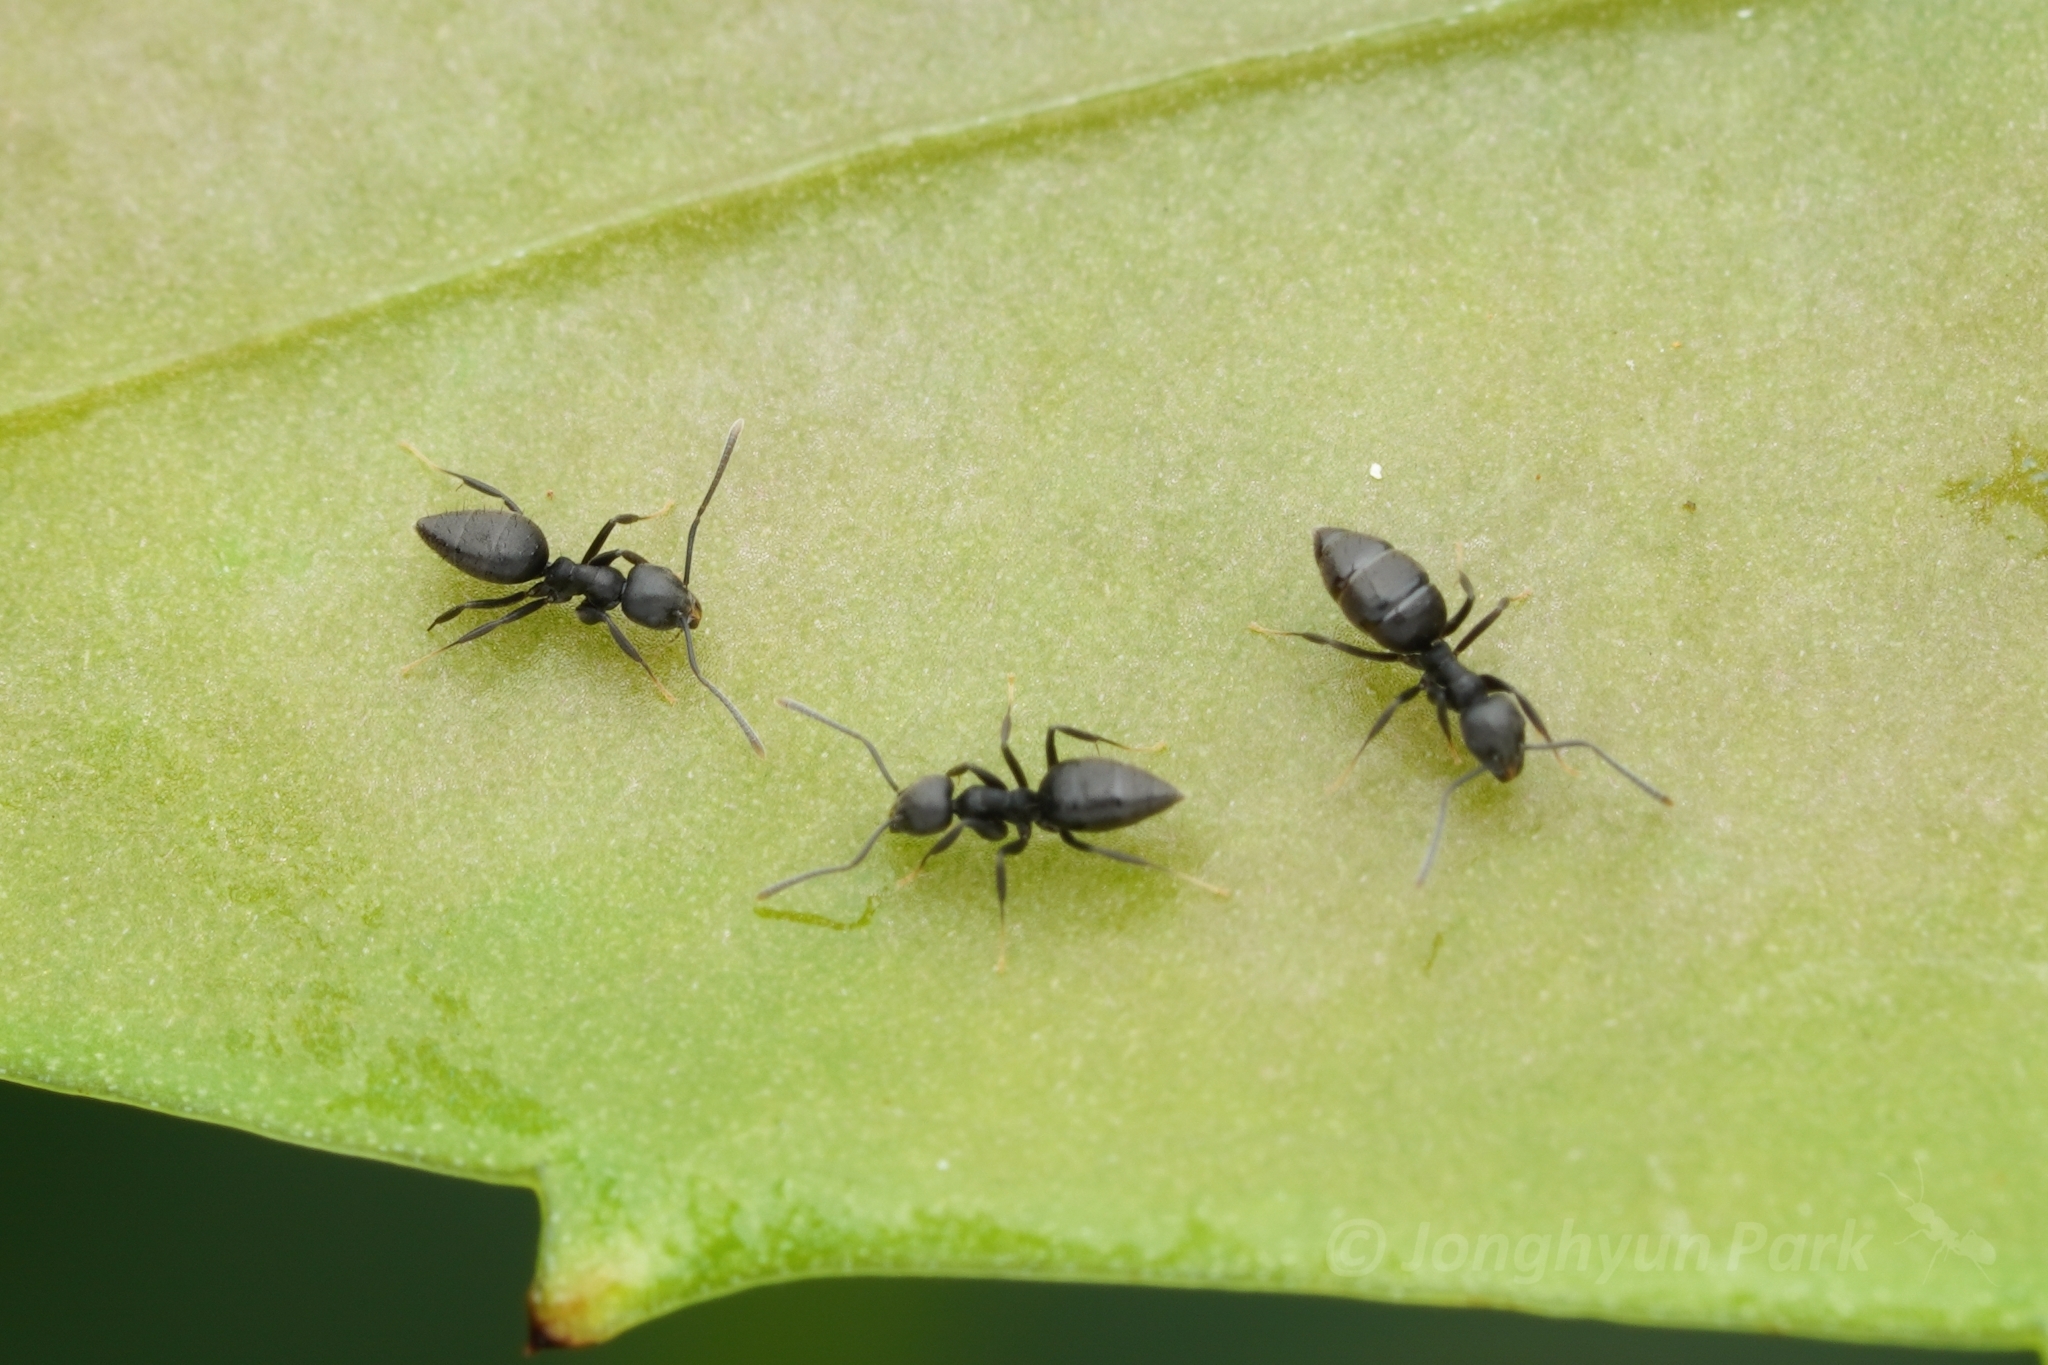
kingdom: Animalia
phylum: Arthropoda
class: Insecta
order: Hymenoptera
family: Formicidae
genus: Technomyrmex
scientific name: Technomyrmex vitiensis
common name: Ant
